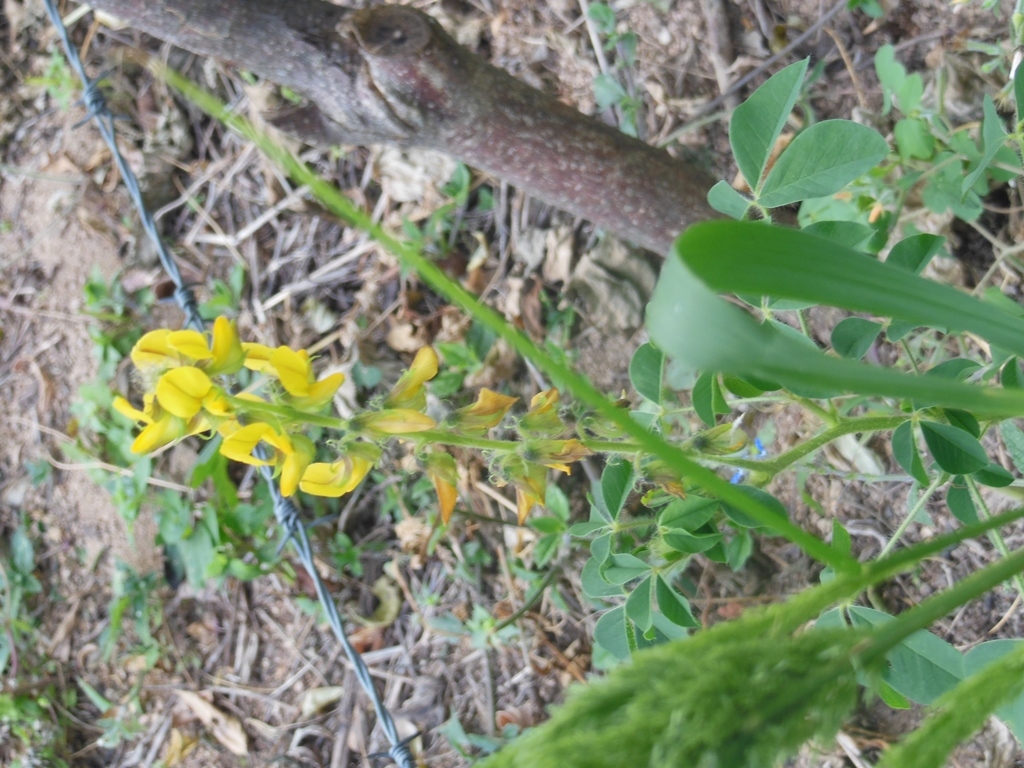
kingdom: Plantae
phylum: Tracheophyta
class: Magnoliopsida
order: Fabales
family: Fabaceae
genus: Crotalaria
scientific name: Crotalaria cajanifolia
